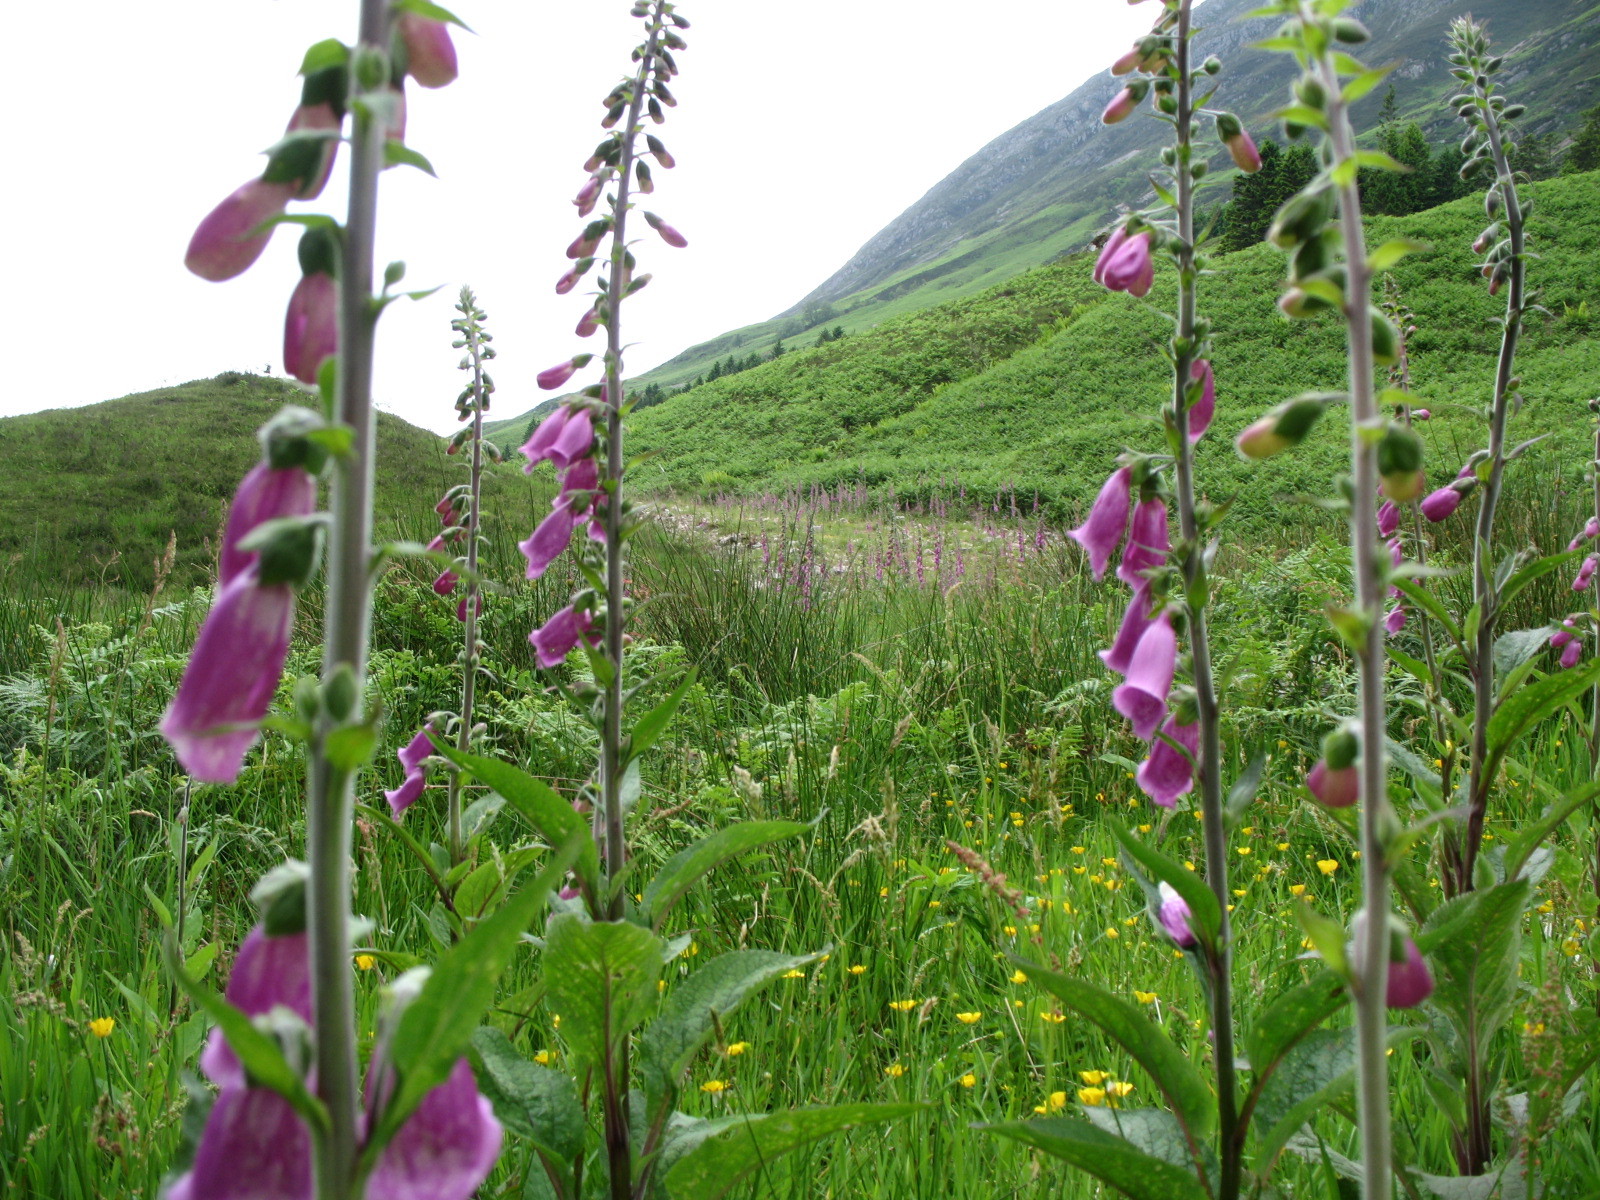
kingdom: Plantae
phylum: Tracheophyta
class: Magnoliopsida
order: Lamiales
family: Plantaginaceae
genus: Digitalis
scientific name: Digitalis purpurea
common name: Foxglove
